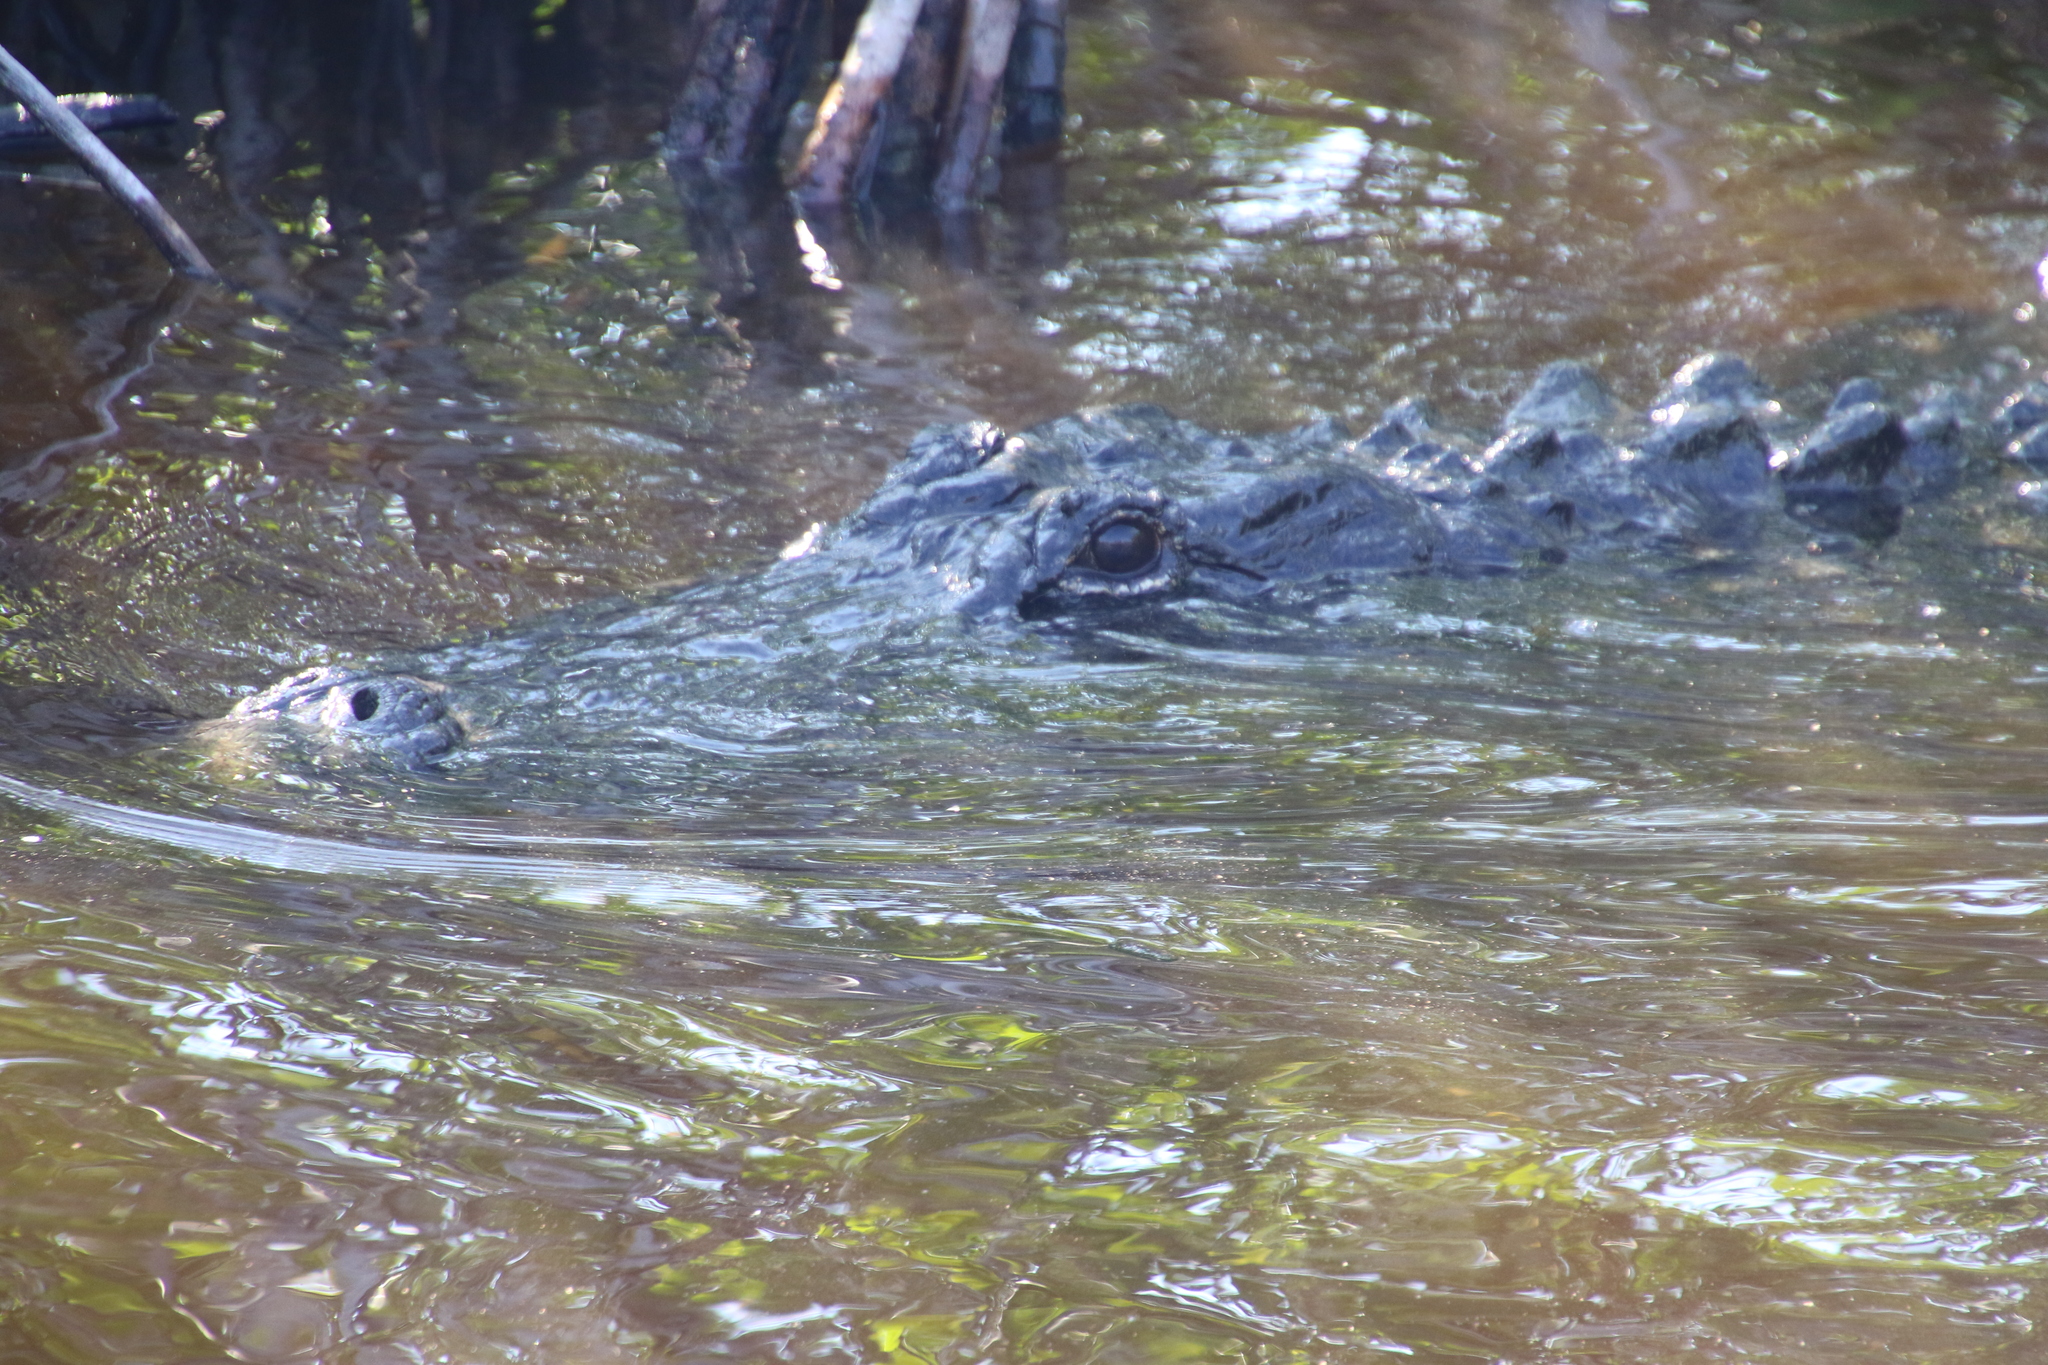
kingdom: Animalia
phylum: Chordata
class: Crocodylia
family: Alligatoridae
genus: Alligator
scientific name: Alligator mississippiensis
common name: American alligator
